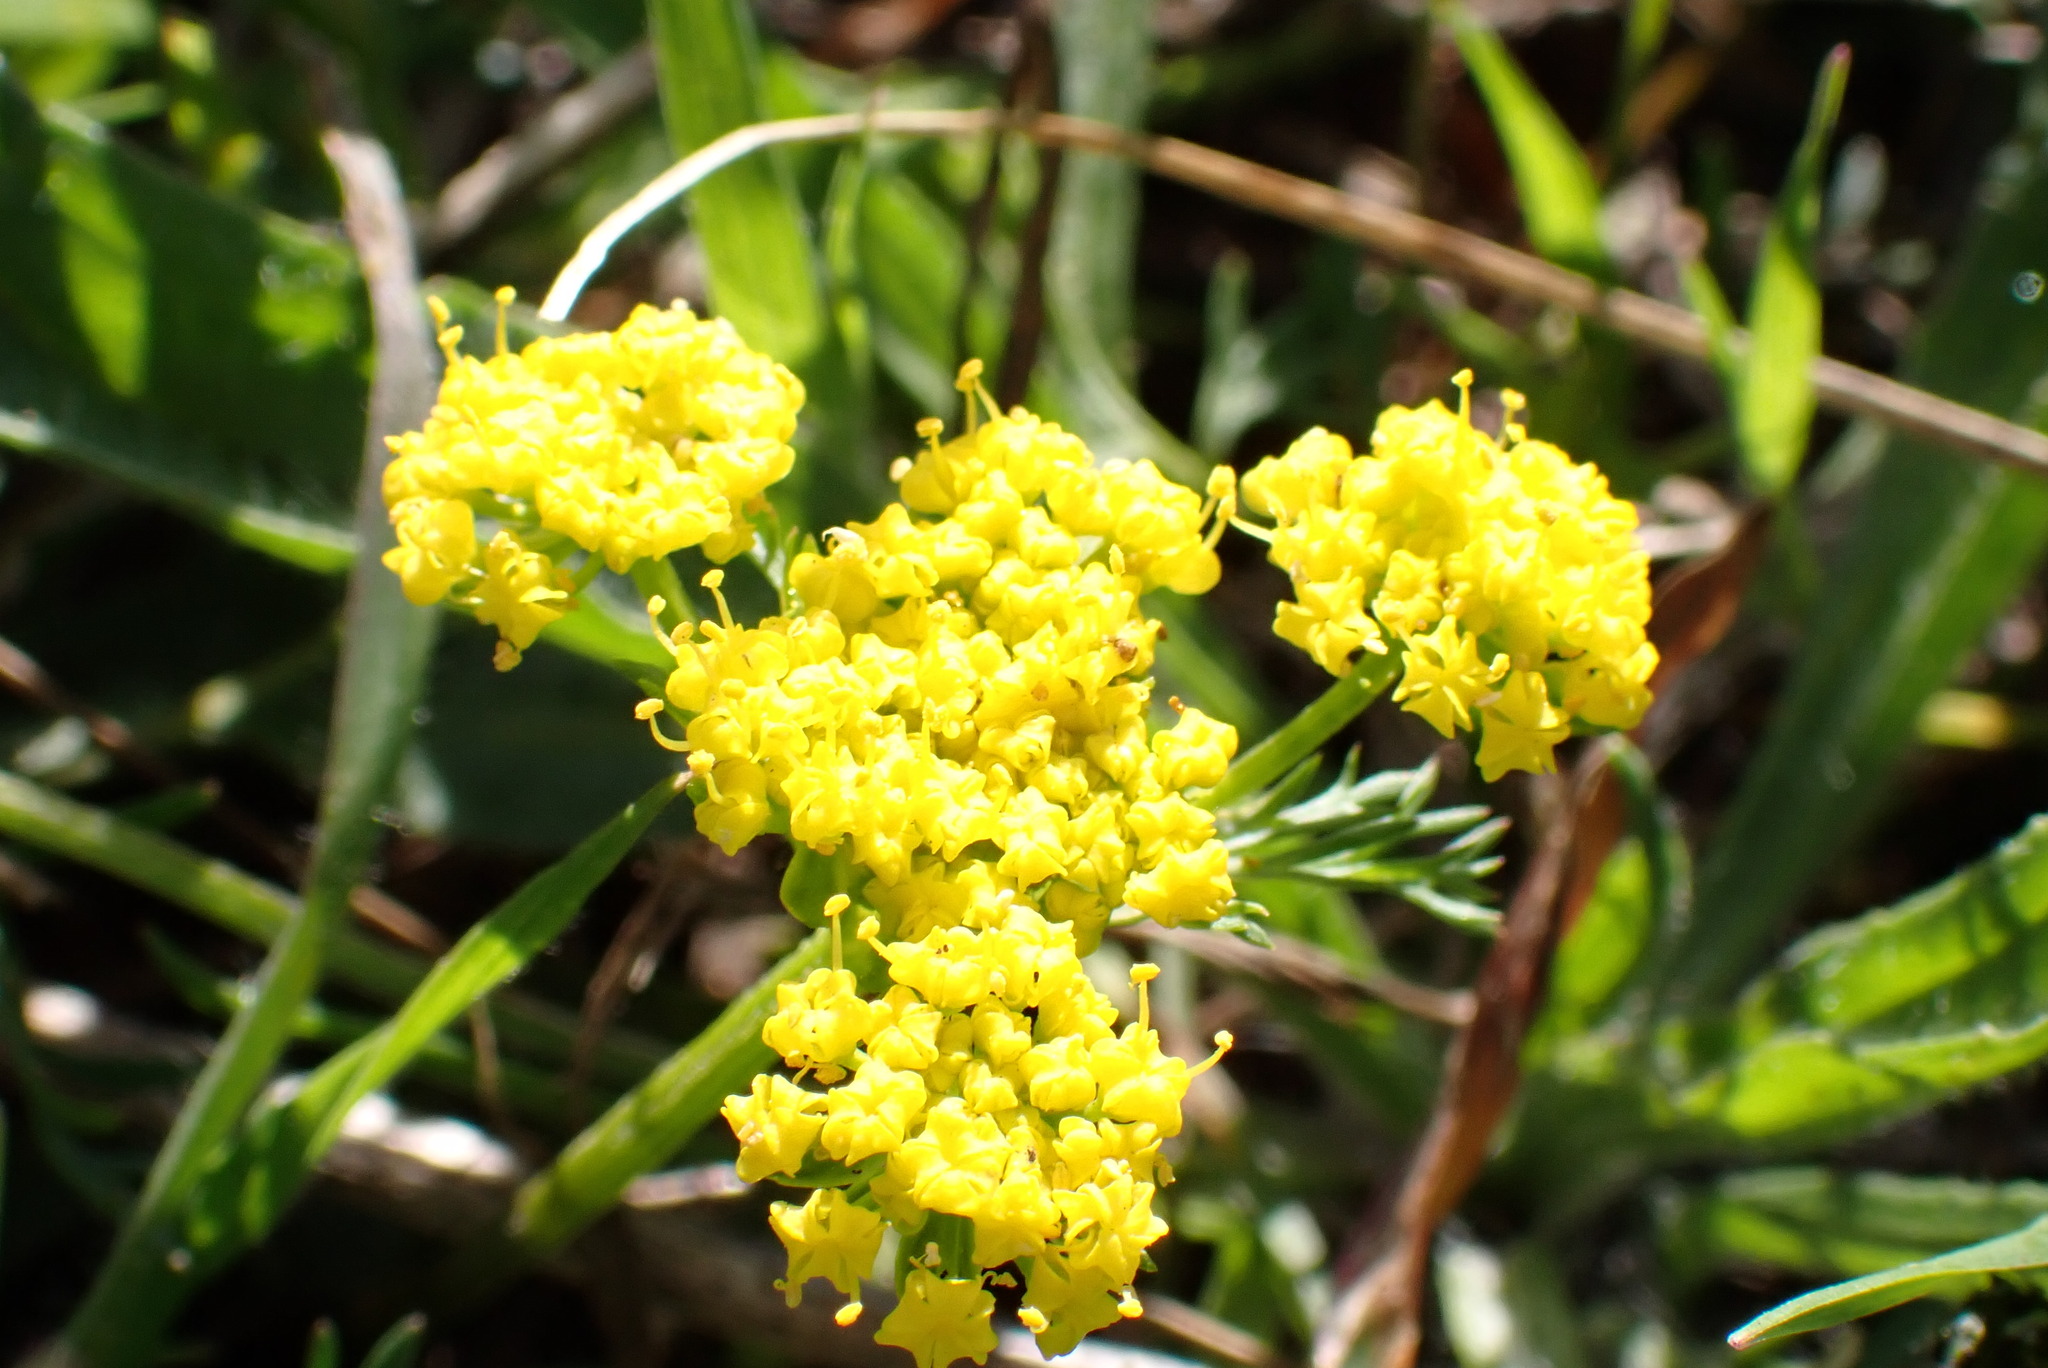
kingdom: Plantae
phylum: Tracheophyta
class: Magnoliopsida
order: Apiales
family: Apiaceae
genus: Lomatium
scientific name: Lomatium utriculatum
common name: Fine-leaf desert-parsley
